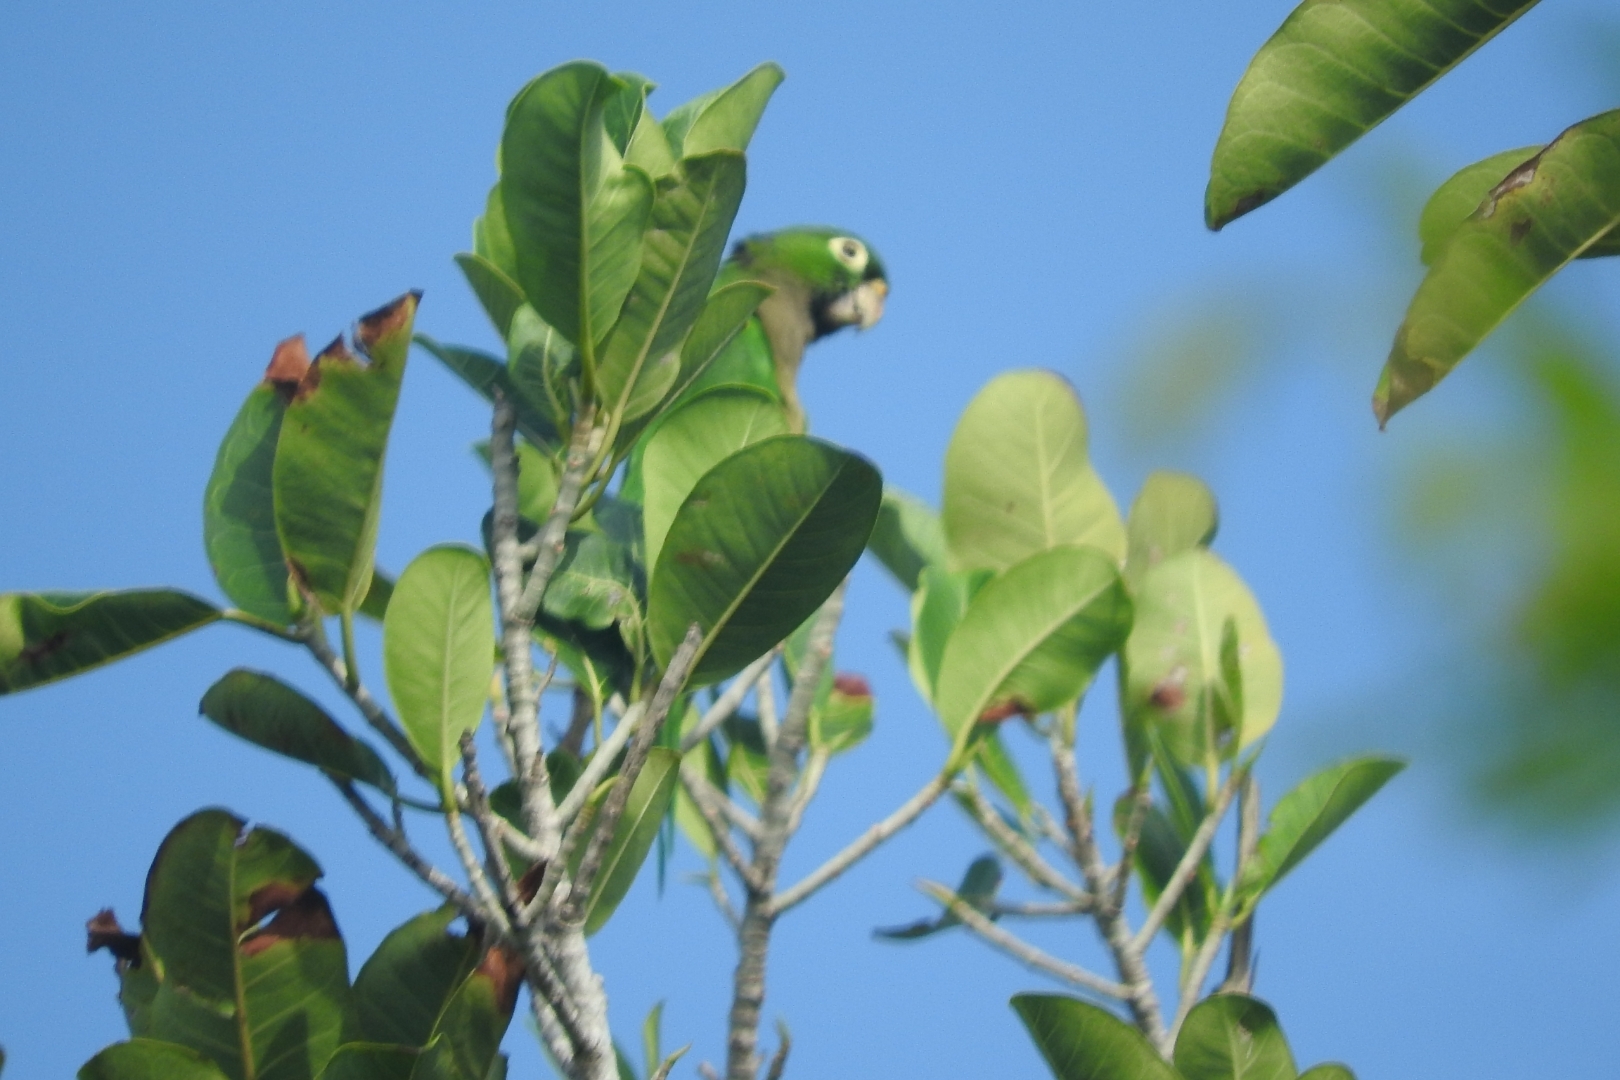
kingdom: Animalia
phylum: Chordata
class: Aves
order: Psittaciformes
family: Psittacidae
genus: Aratinga
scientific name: Aratinga nana
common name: Olive-throated parakeet
